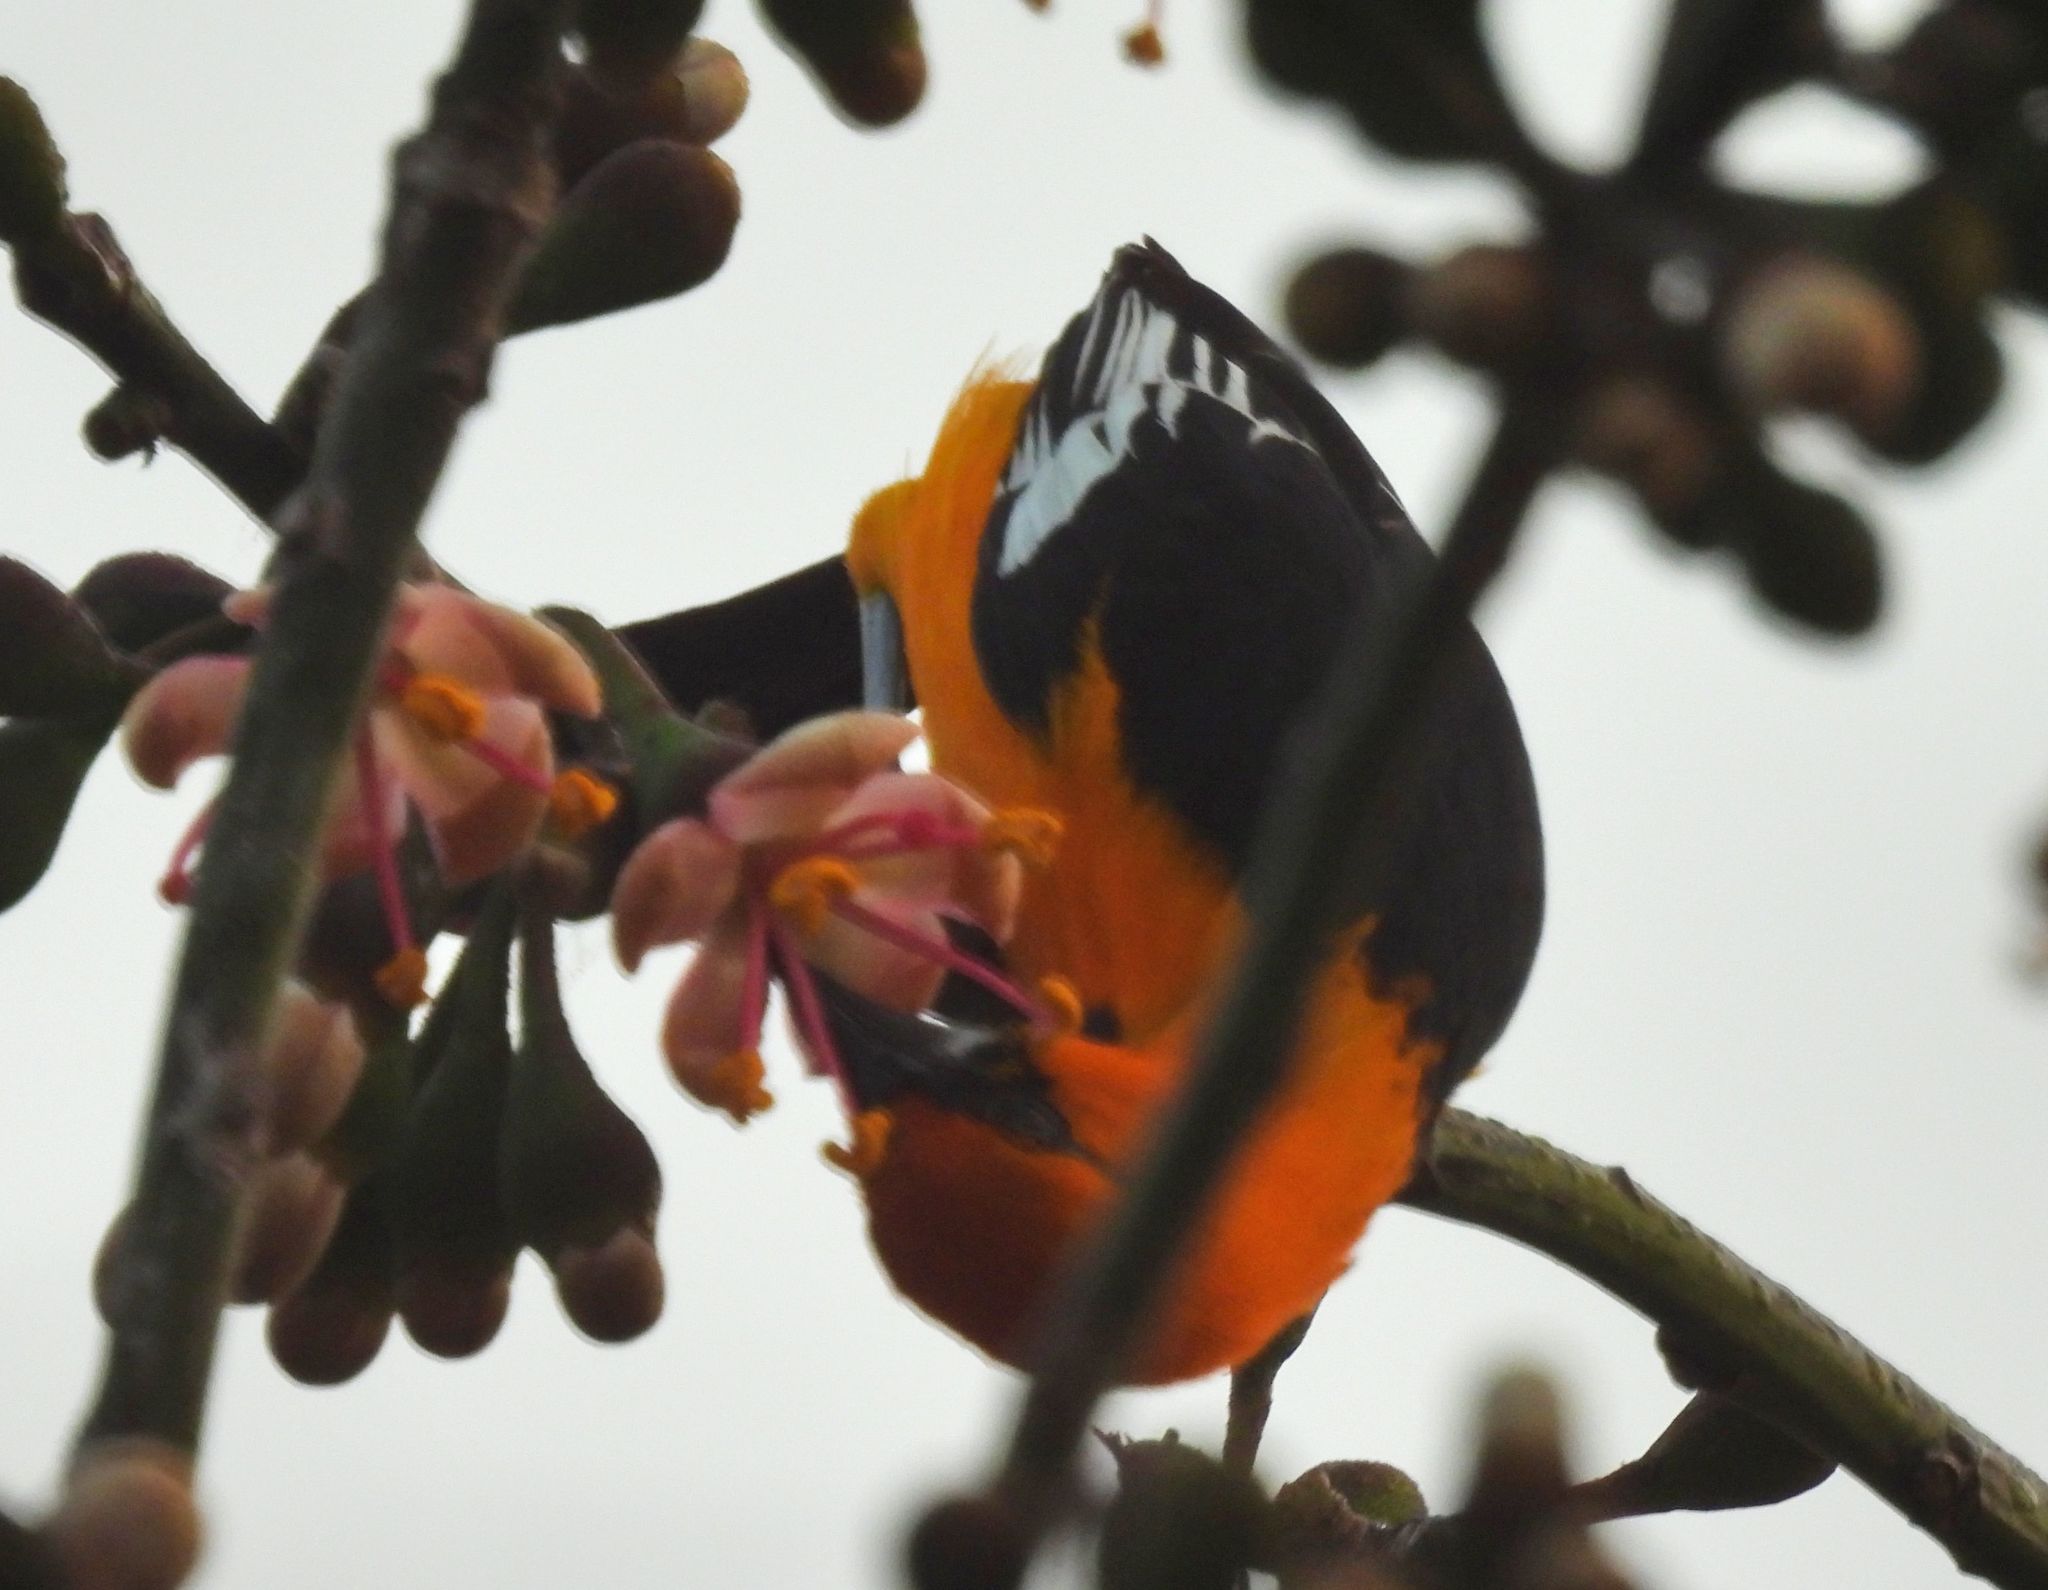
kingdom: Animalia
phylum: Chordata
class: Aves
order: Passeriformes
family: Icteridae
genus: Icterus
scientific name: Icterus gularis
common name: Altamira oriole
